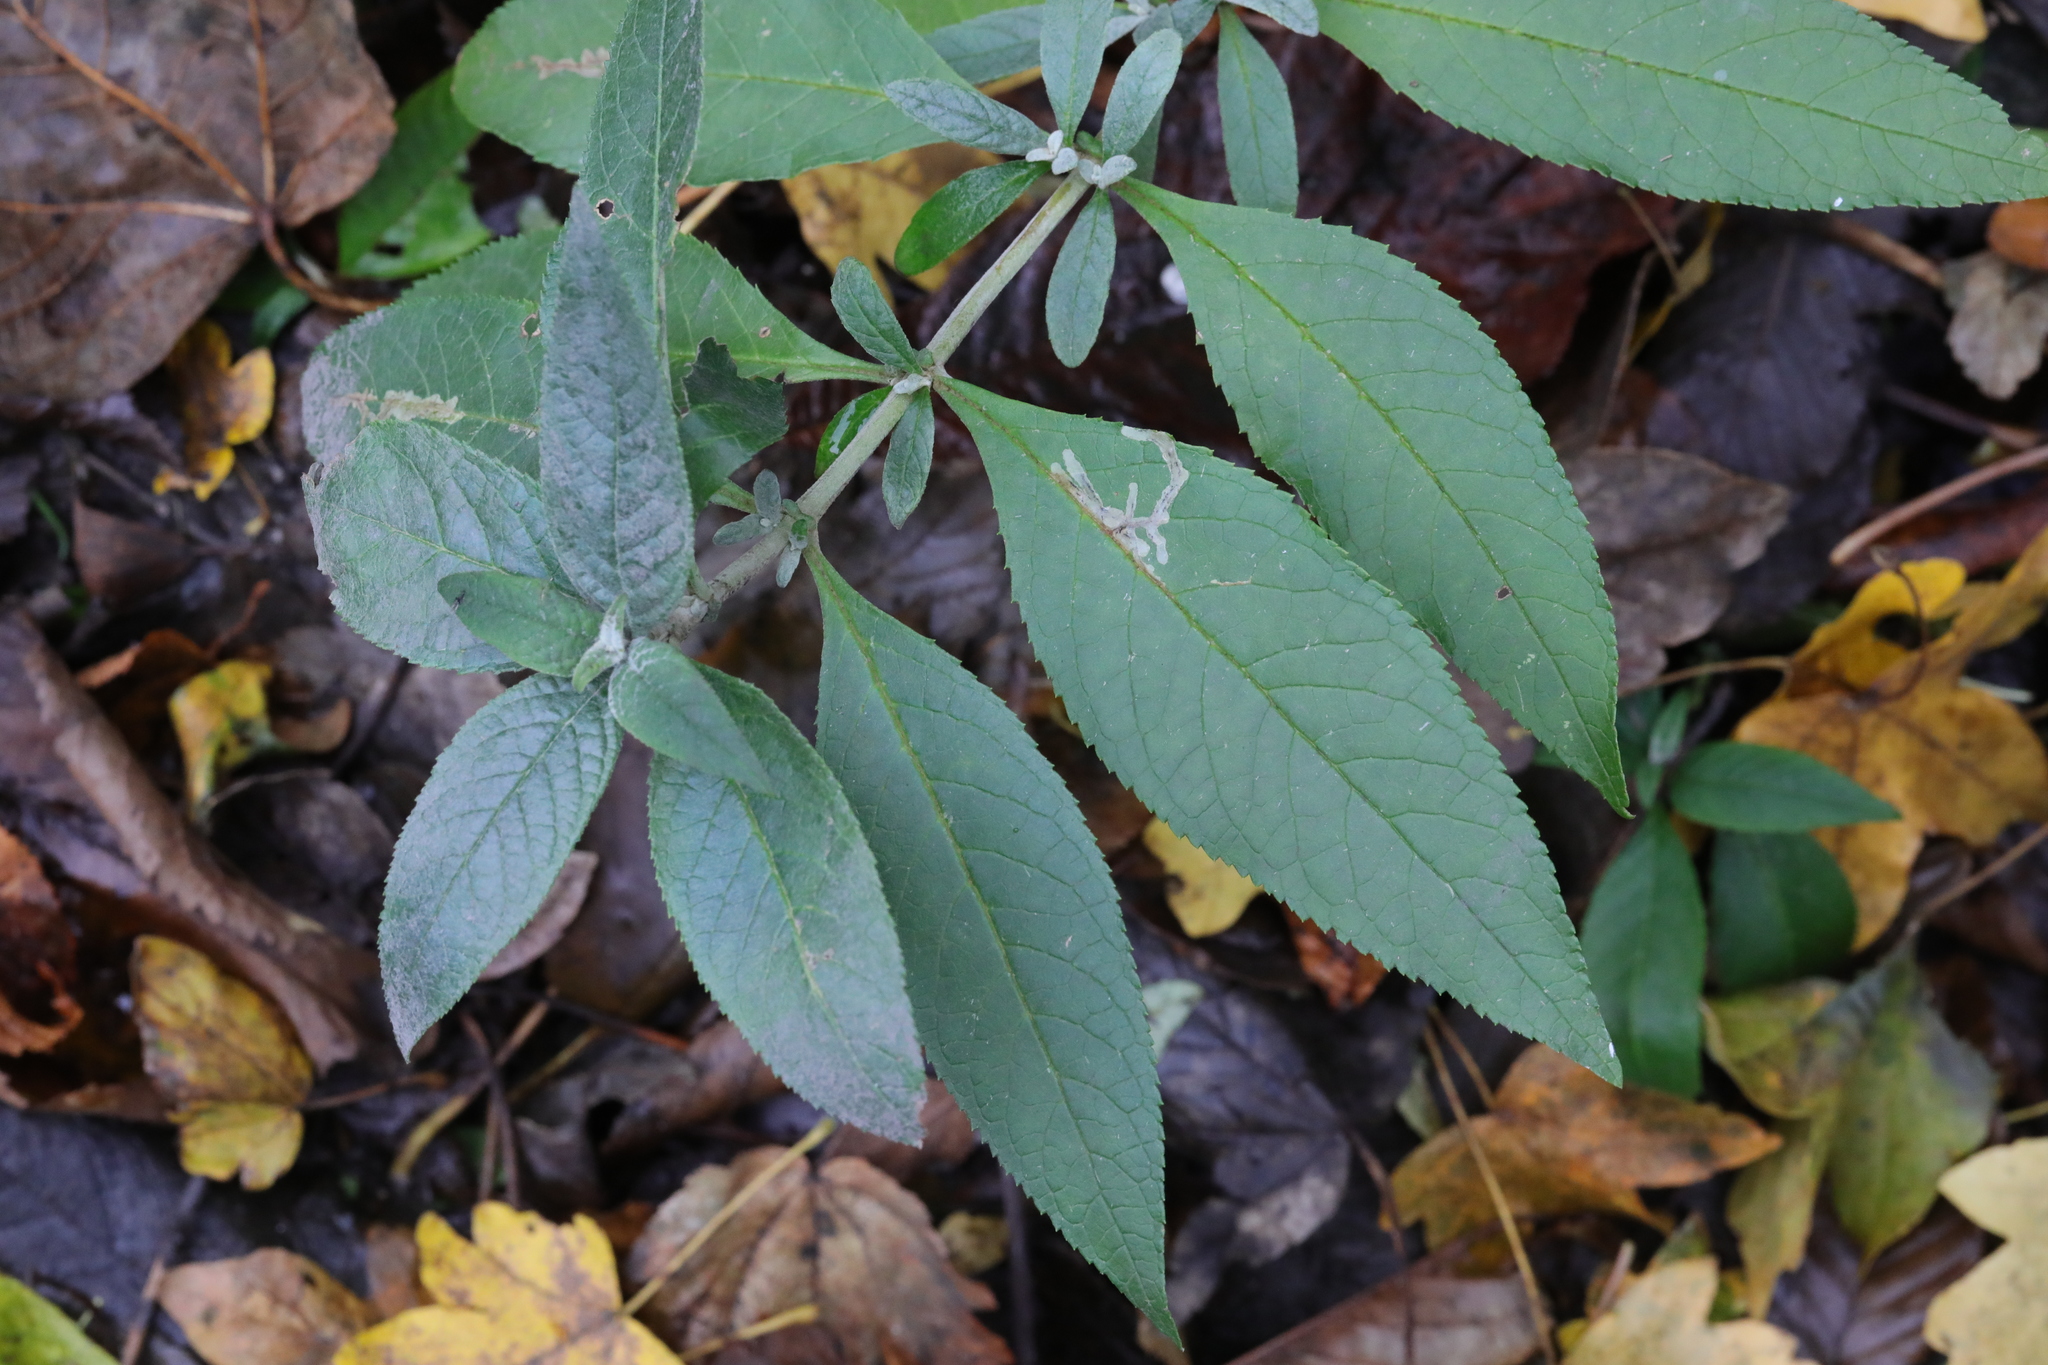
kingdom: Plantae
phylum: Tracheophyta
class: Magnoliopsida
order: Lamiales
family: Scrophulariaceae
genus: Buddleja
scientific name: Buddleja davidii
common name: Butterfly-bush
